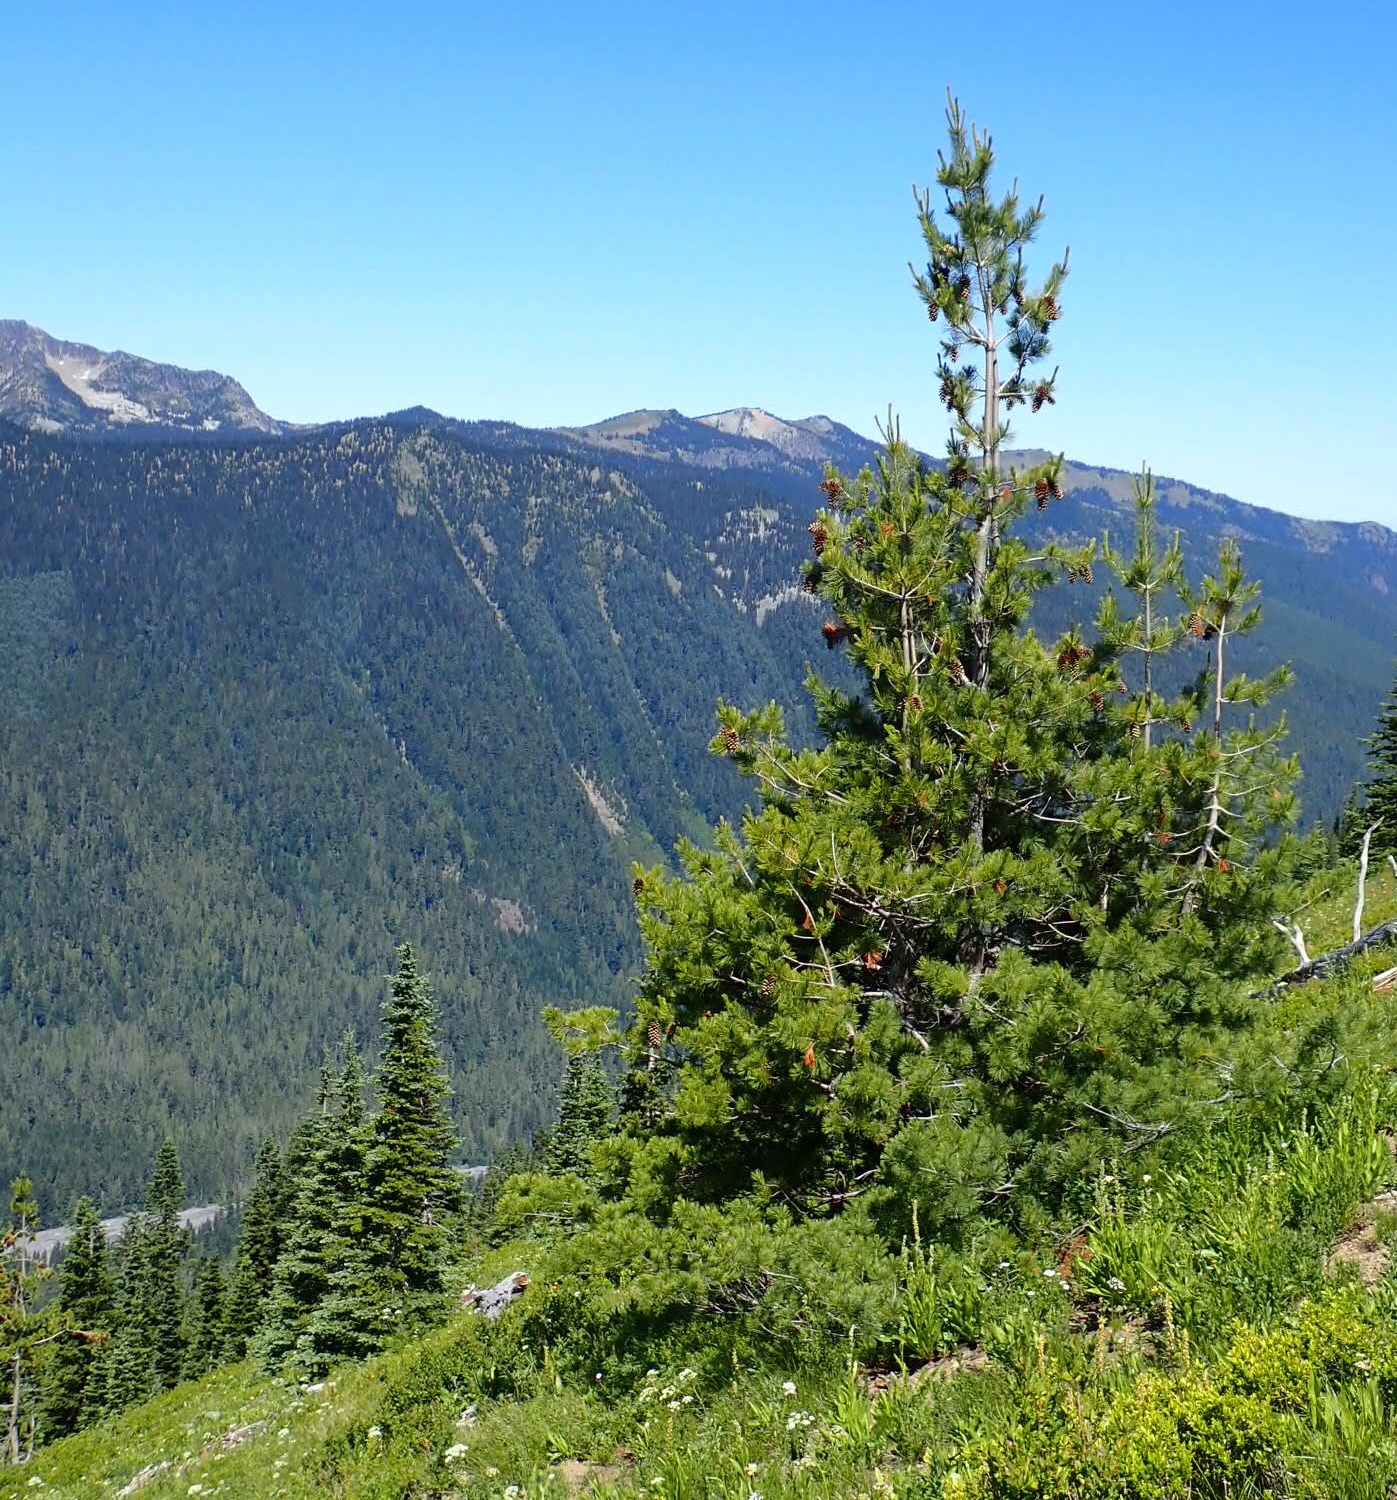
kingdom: Plantae
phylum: Tracheophyta
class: Pinopsida
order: Pinales
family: Pinaceae
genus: Pinus
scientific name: Pinus monticola
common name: Western white pine
